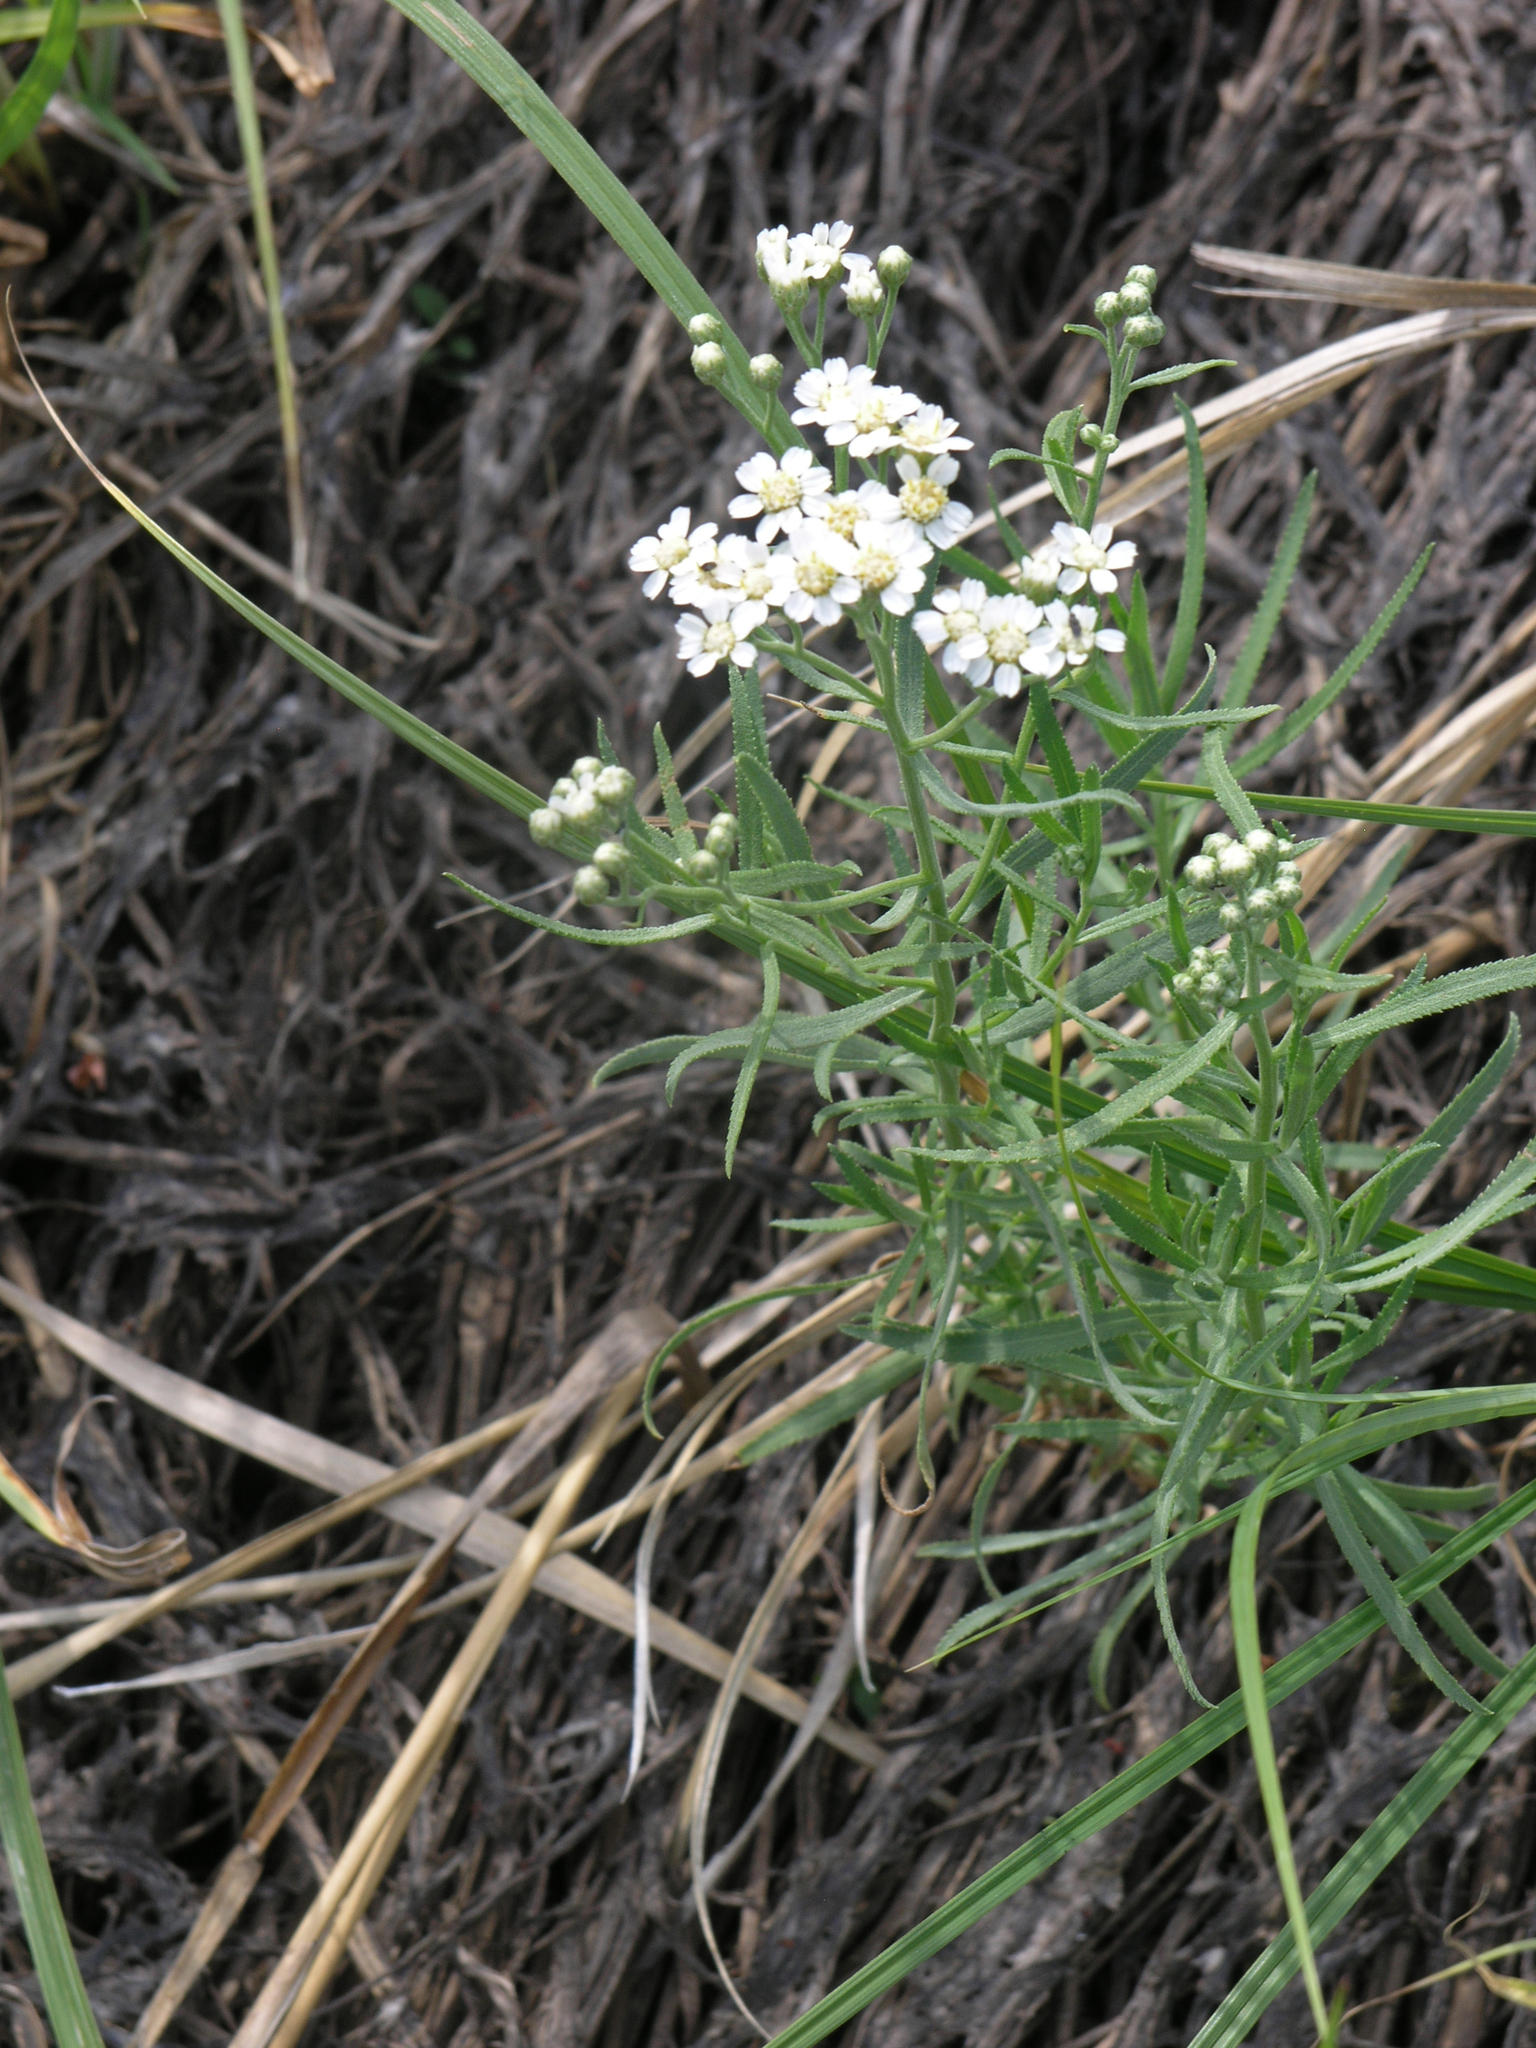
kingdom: Plantae
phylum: Tracheophyta
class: Magnoliopsida
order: Asterales
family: Asteraceae
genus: Achillea
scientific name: Achillea salicifolia
